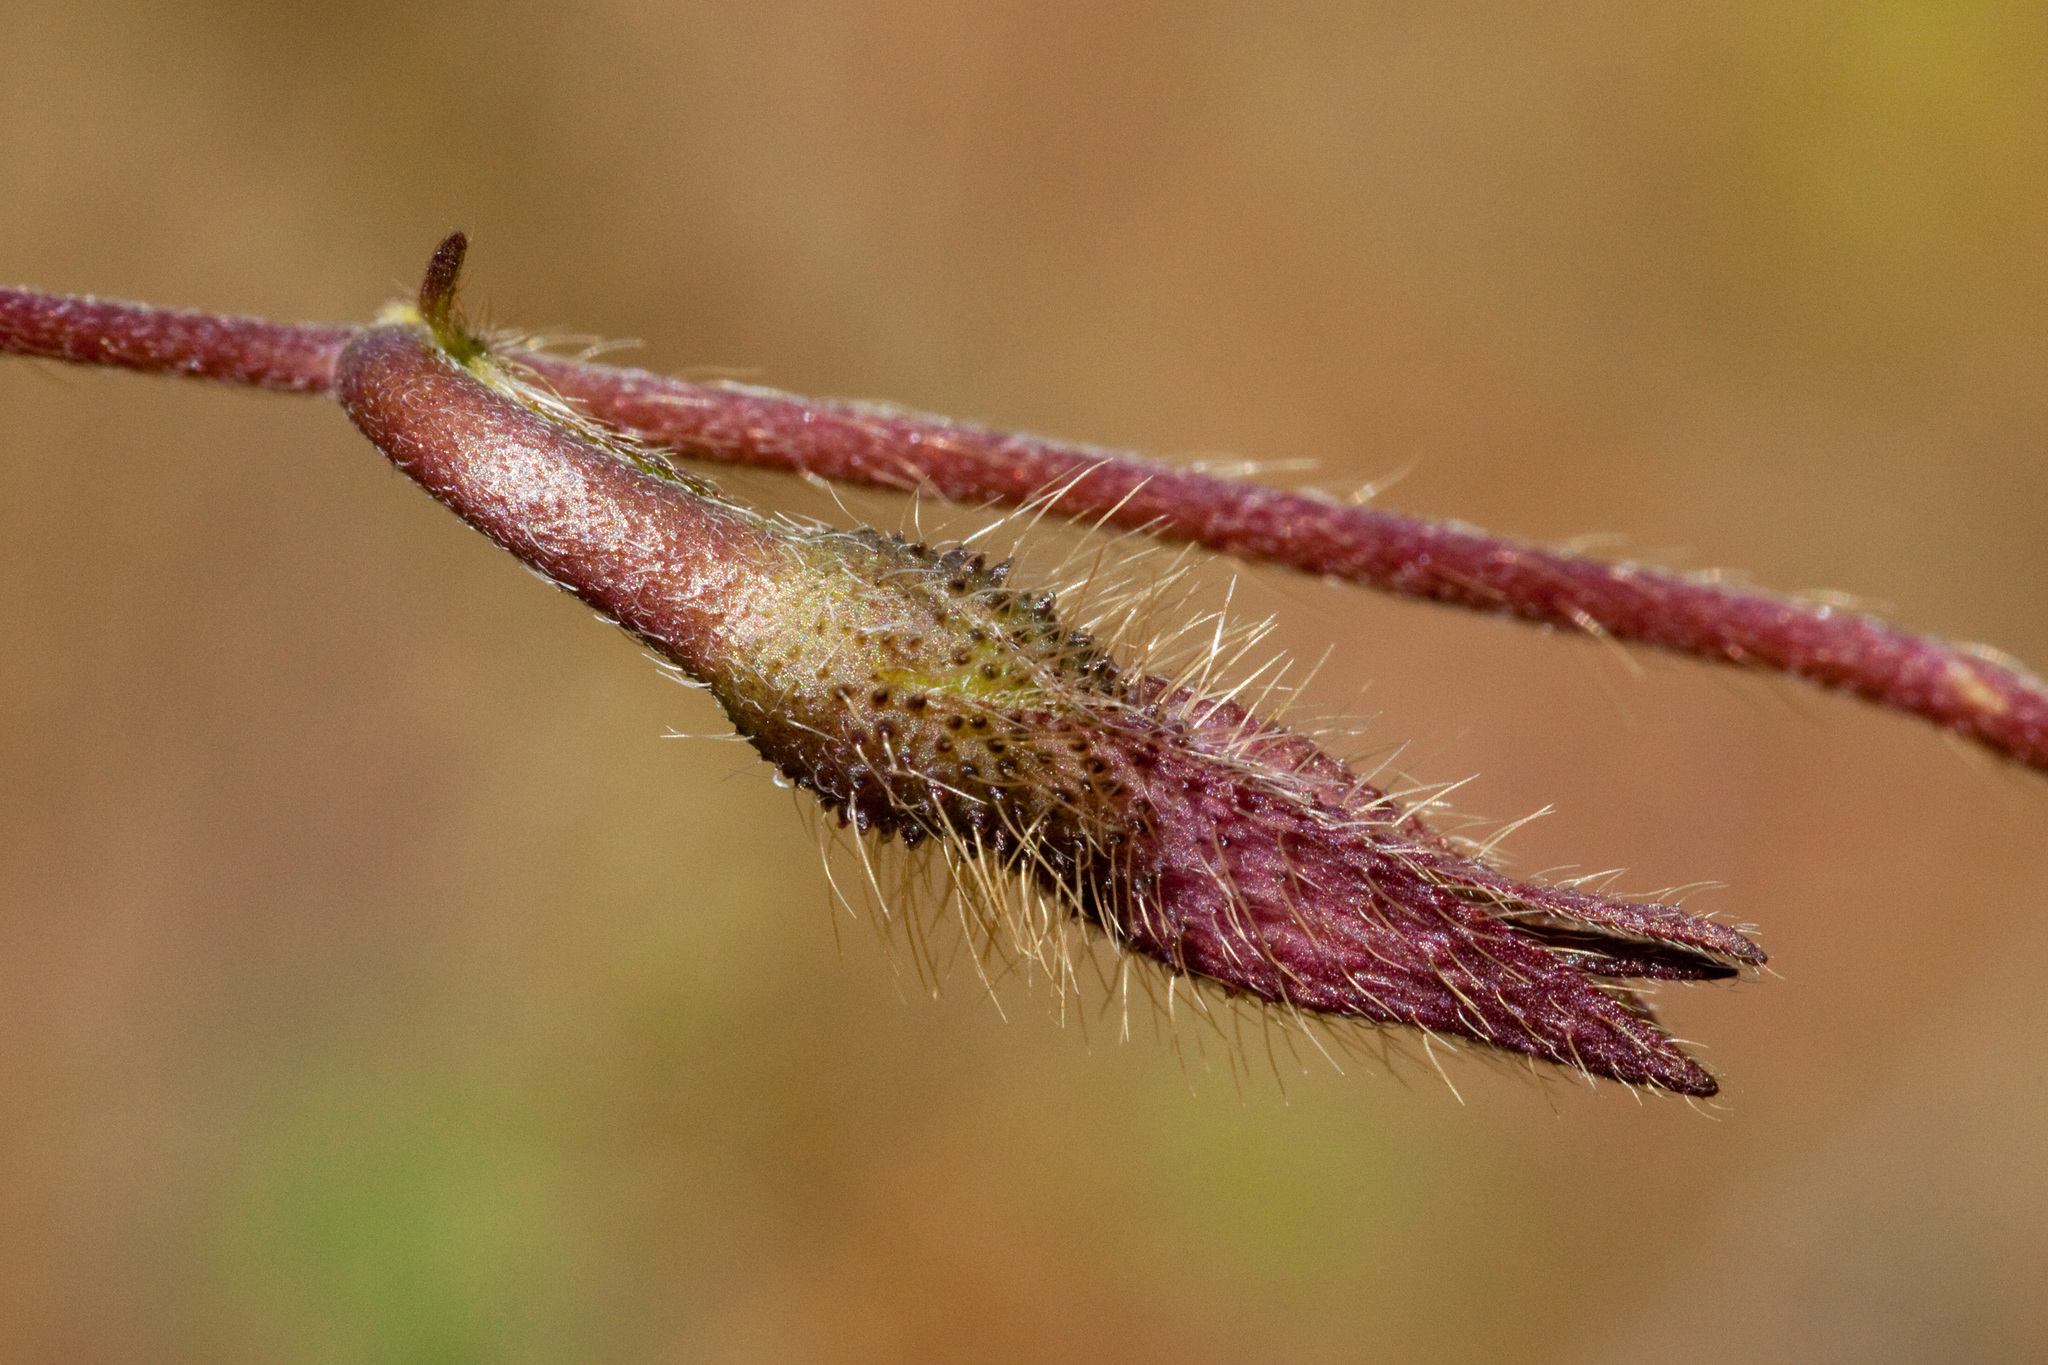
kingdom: Plantae
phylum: Tracheophyta
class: Magnoliopsida
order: Solanales
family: Convolvulaceae
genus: Ipomoea
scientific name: Ipomoea purpurea
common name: Common morning-glory
